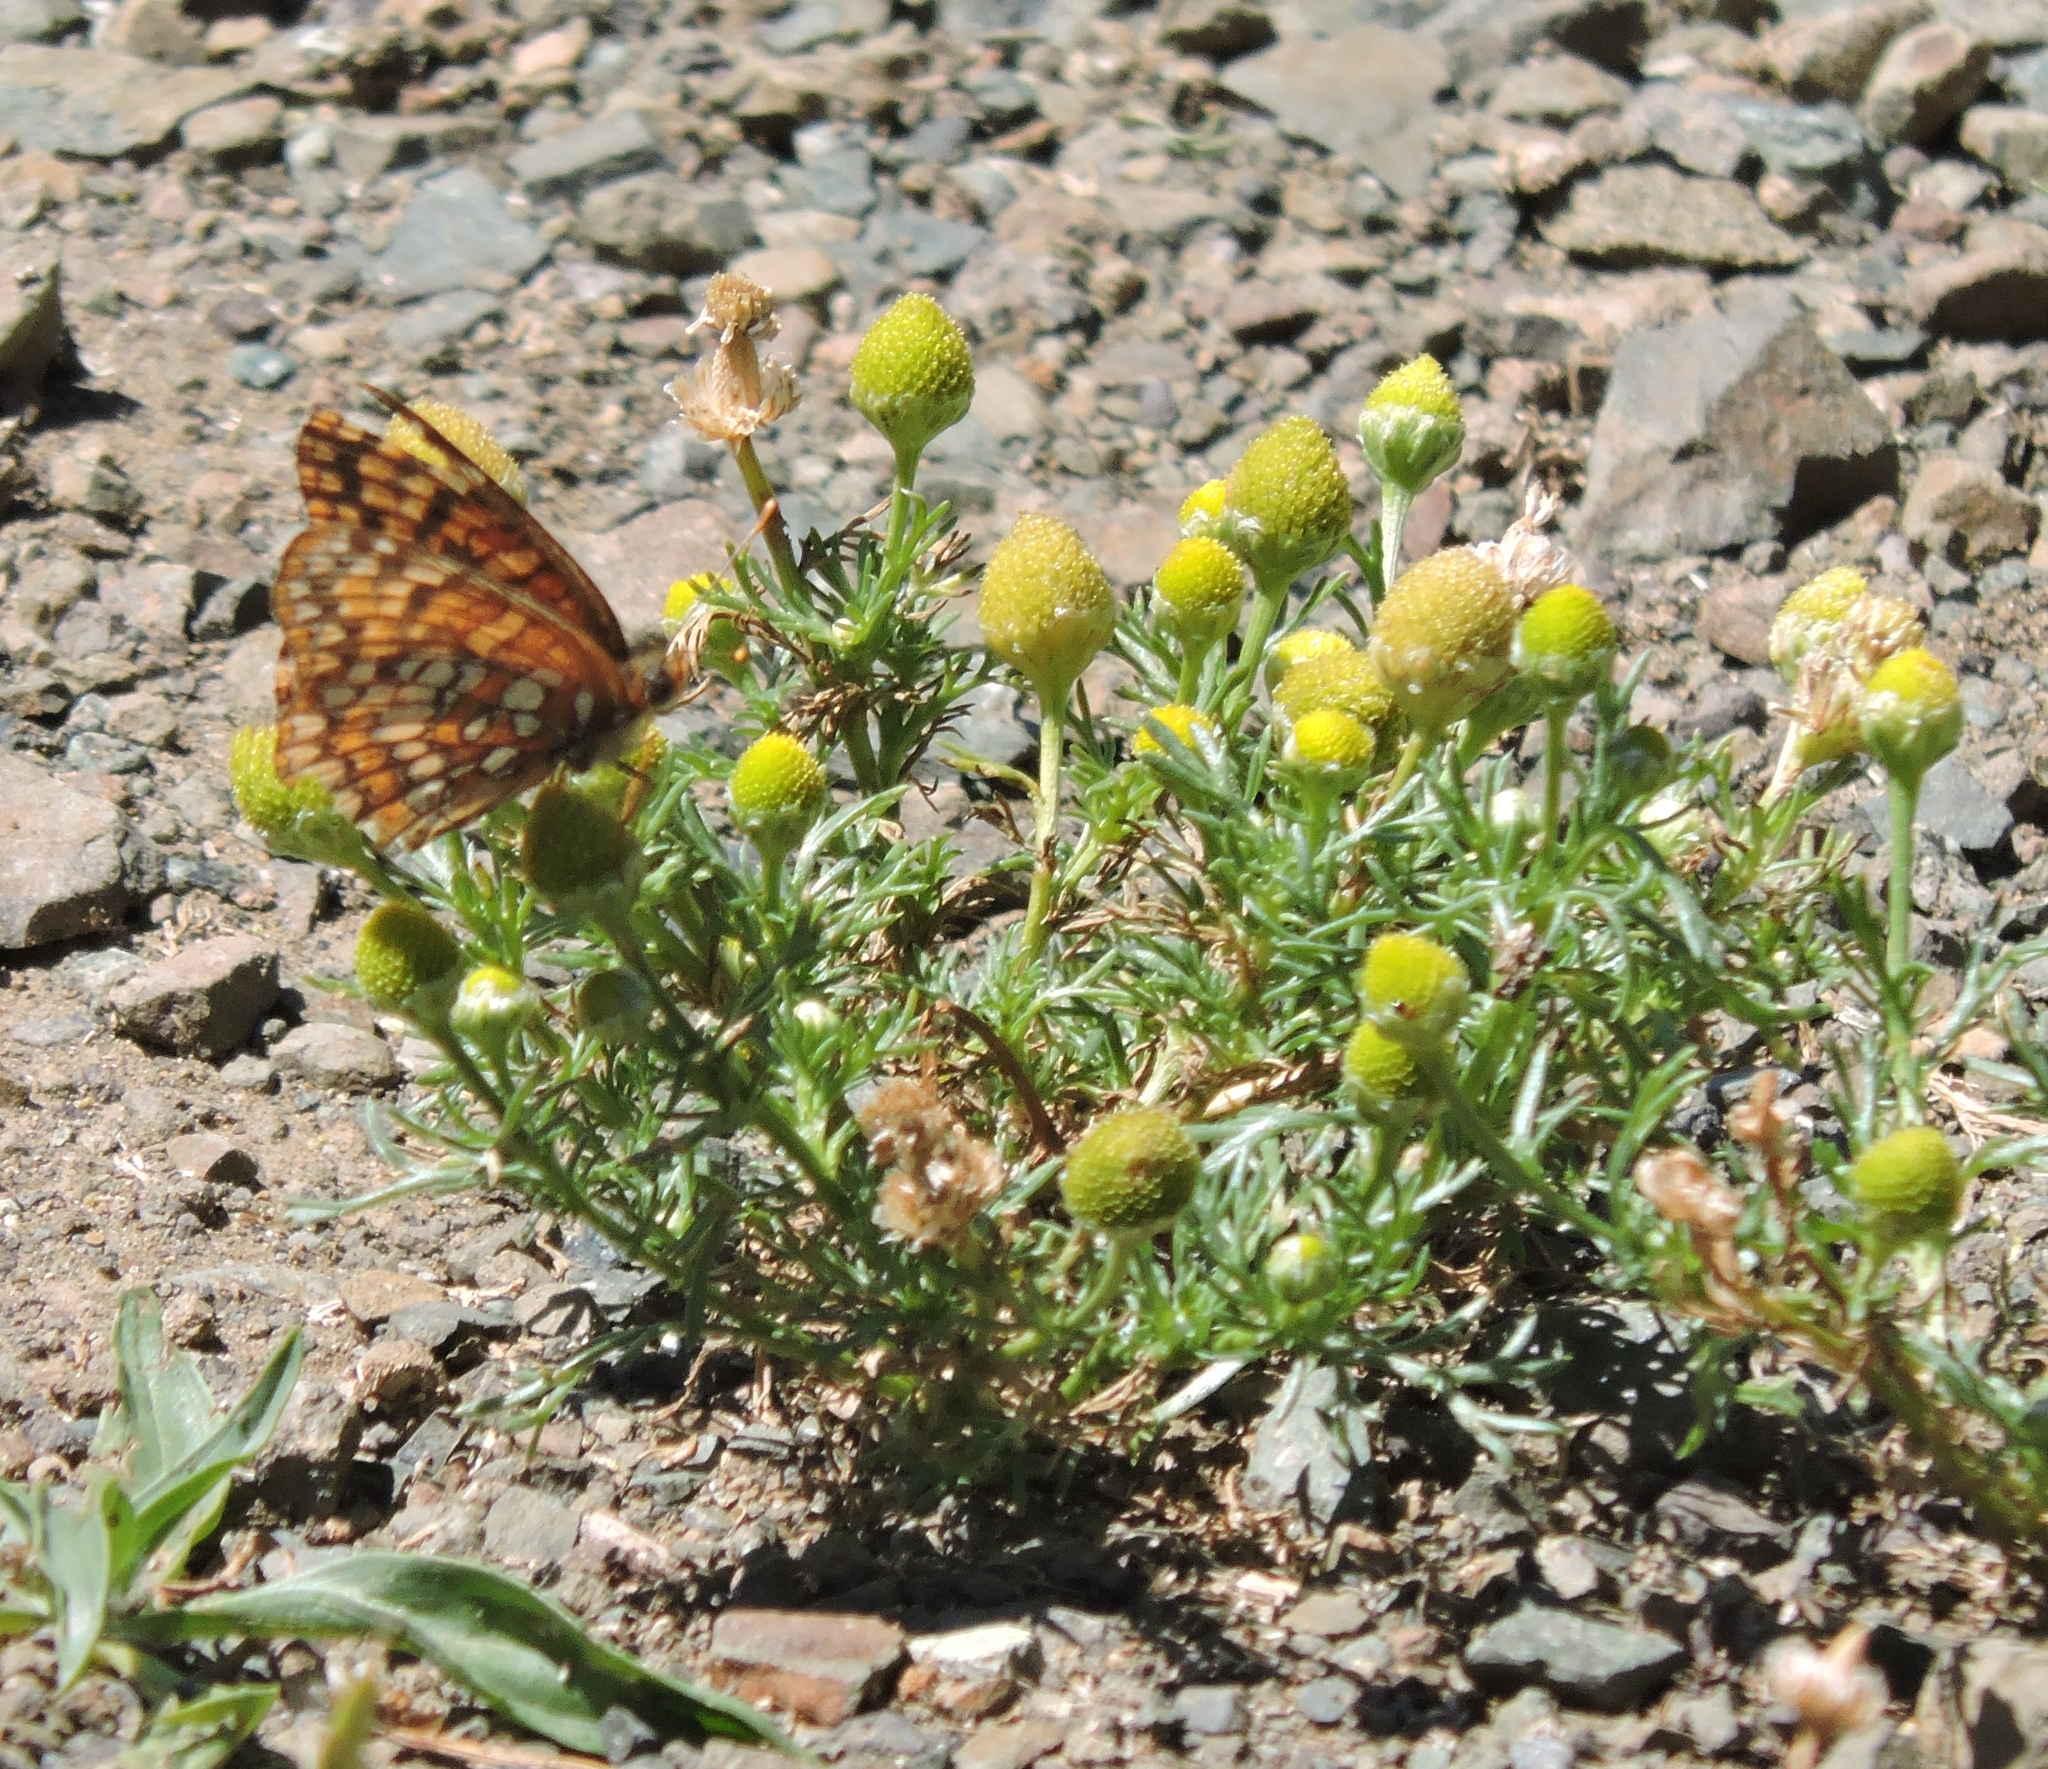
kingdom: Plantae
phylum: Tracheophyta
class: Magnoliopsida
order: Asterales
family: Asteraceae
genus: Matricaria
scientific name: Matricaria discoidea
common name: Disc mayweed
